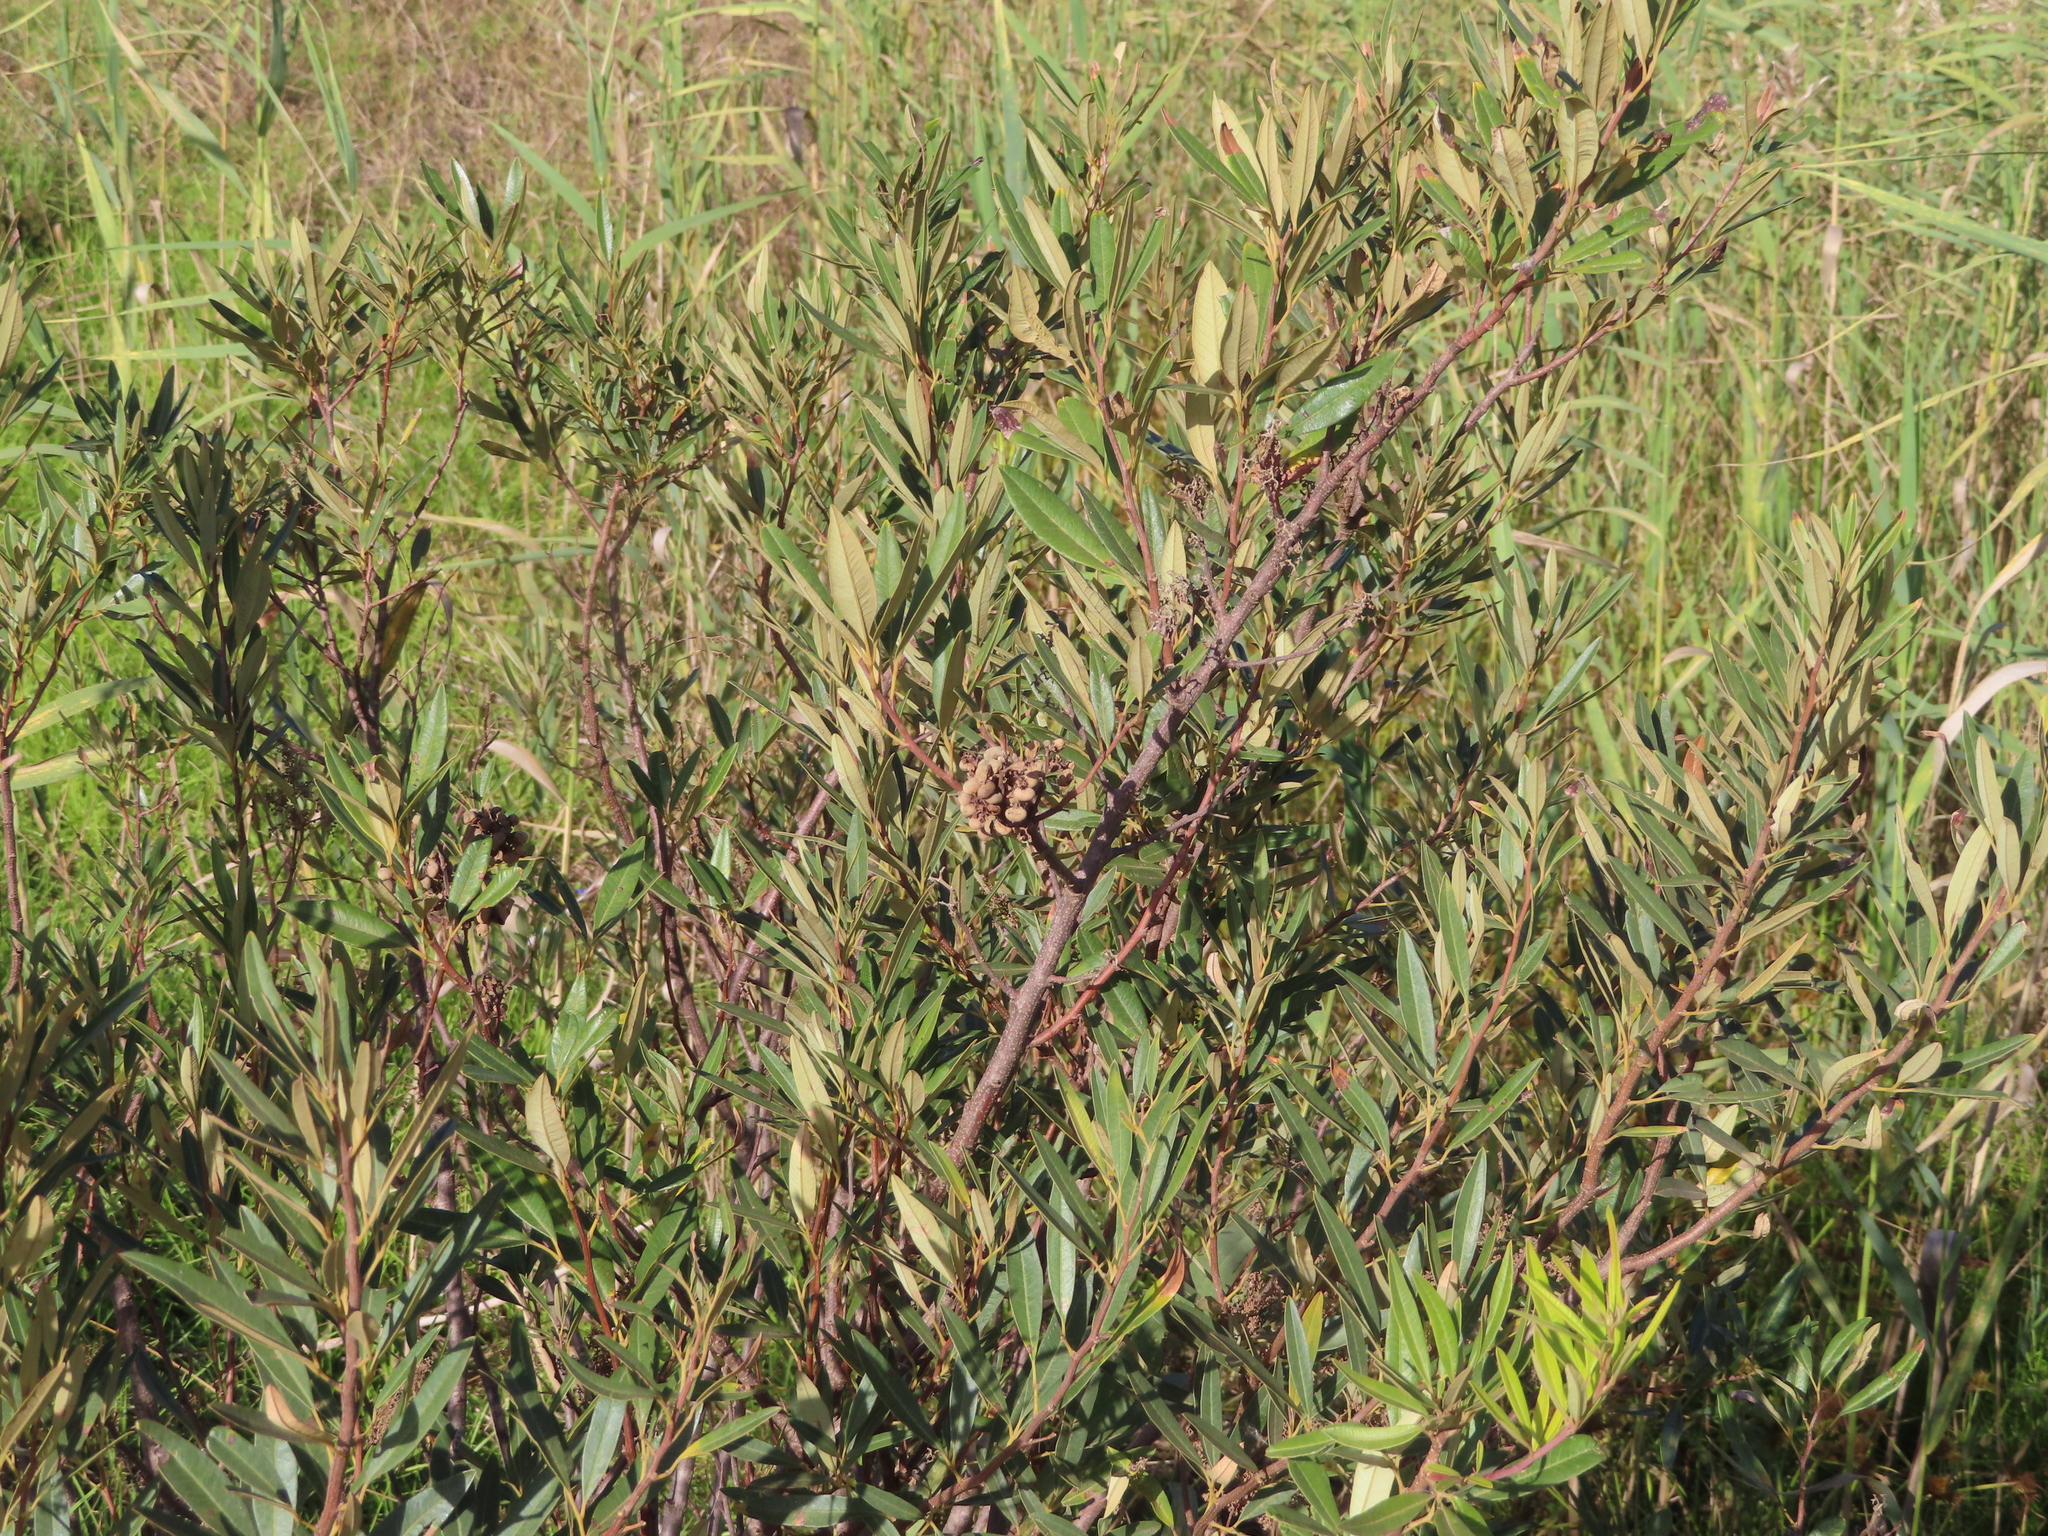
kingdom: Plantae
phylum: Tracheophyta
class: Magnoliopsida
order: Sapindales
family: Anacardiaceae
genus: Searsia
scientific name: Searsia angustifolia
